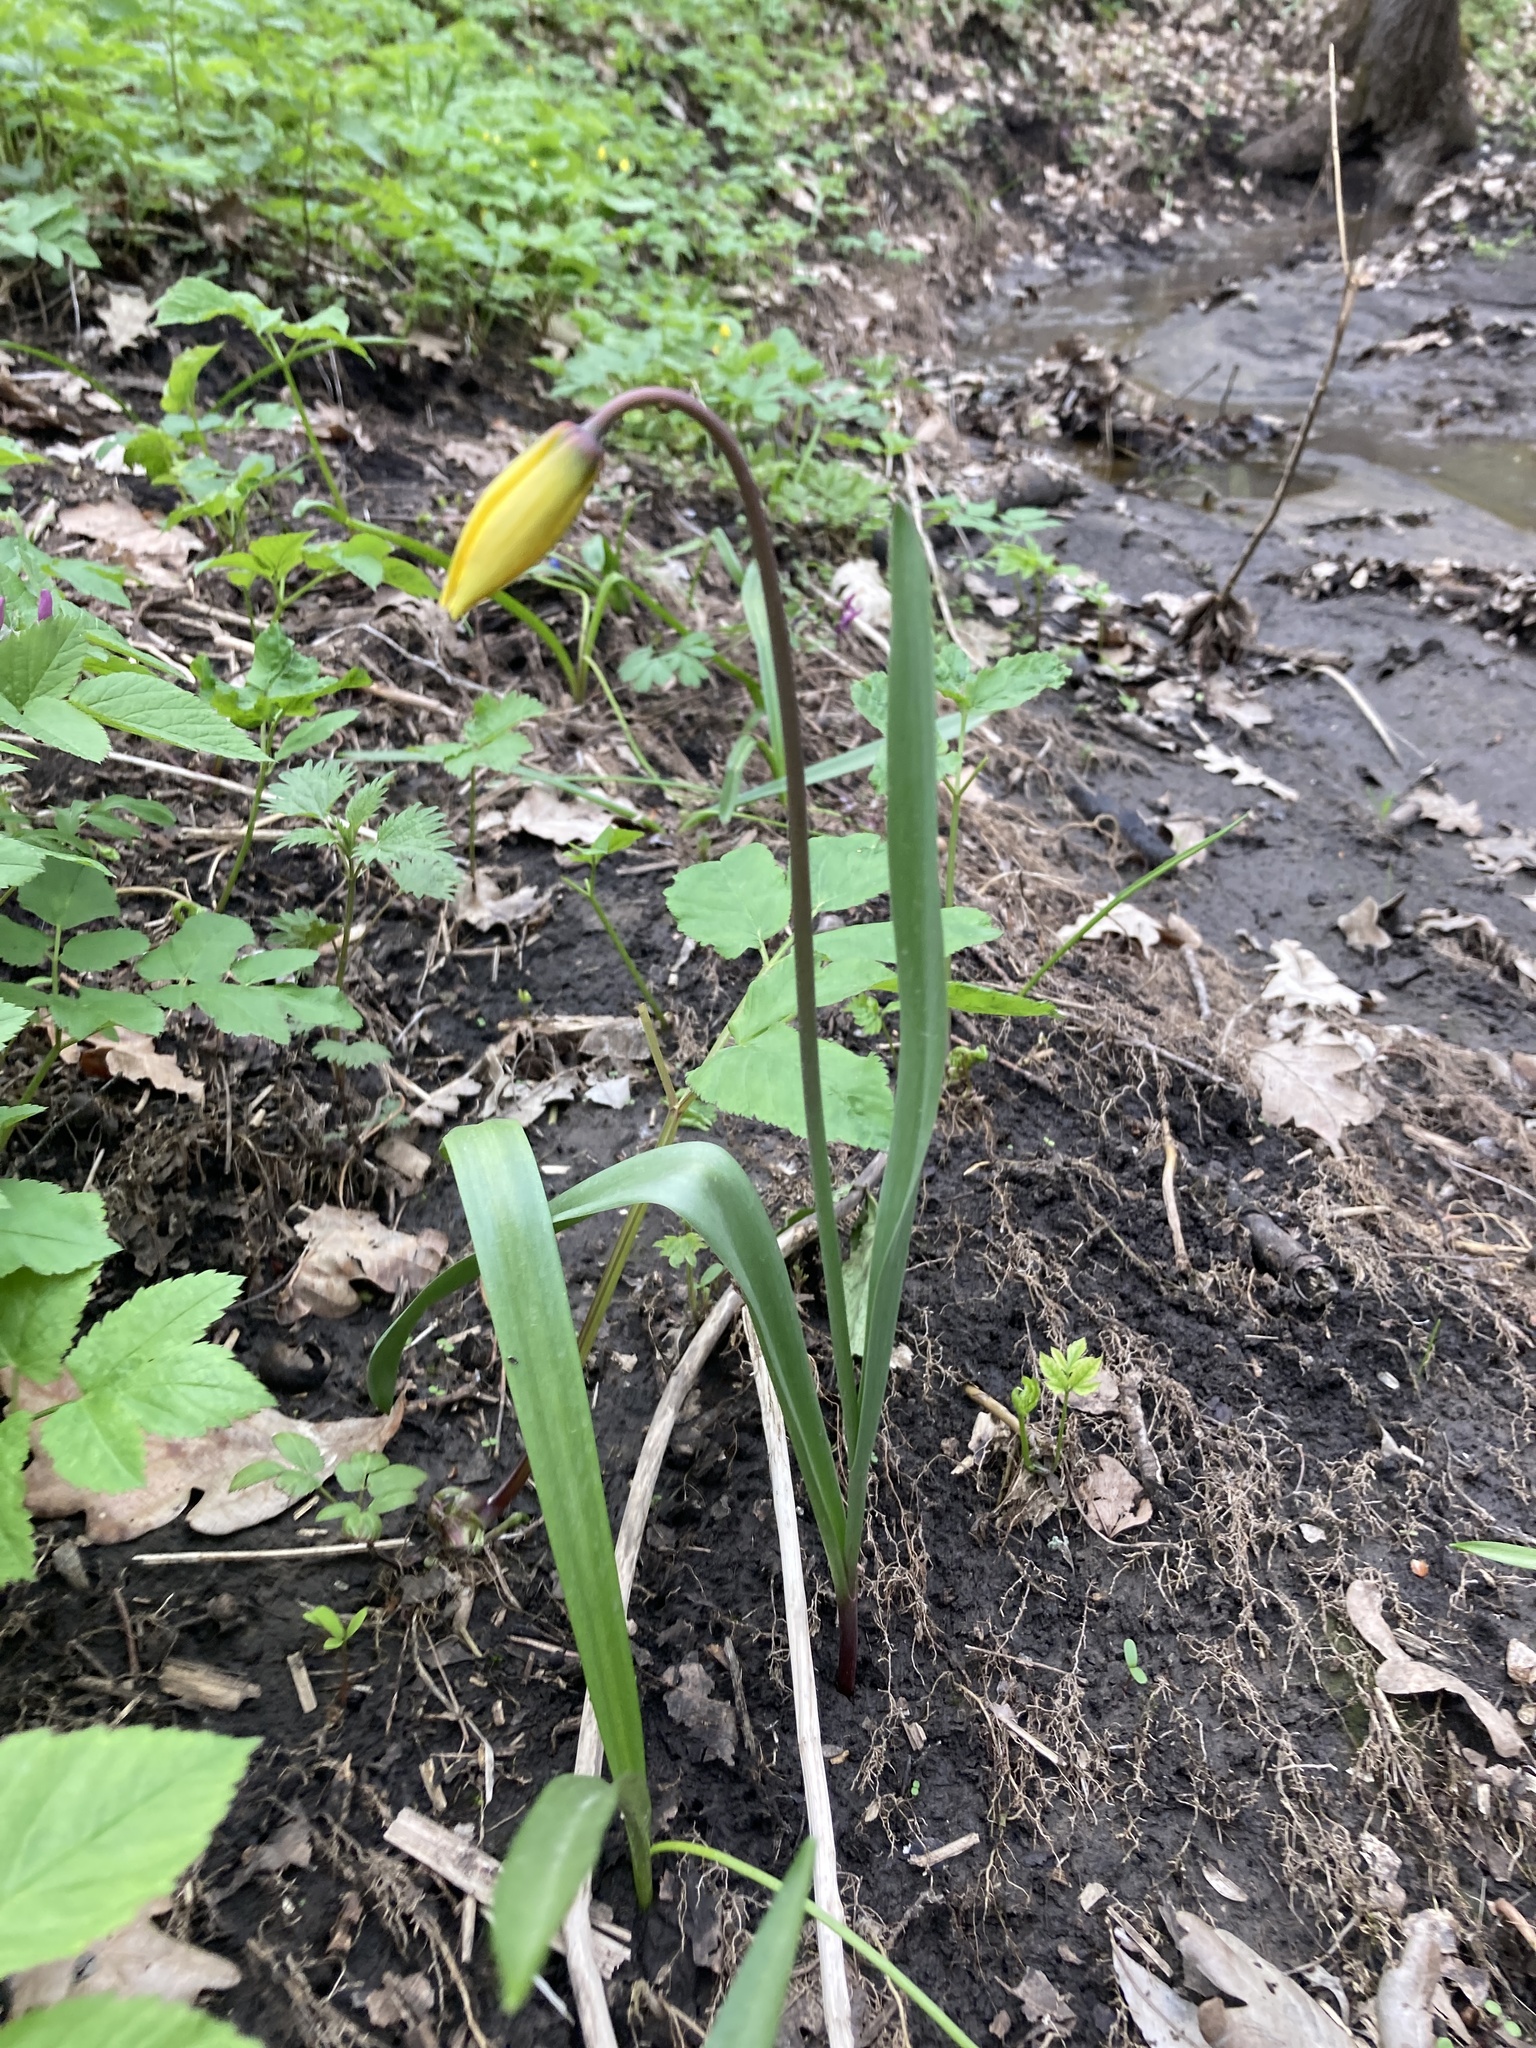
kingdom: Plantae
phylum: Tracheophyta
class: Liliopsida
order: Liliales
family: Liliaceae
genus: Tulipa
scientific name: Tulipa sylvestris
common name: Wild tulip
